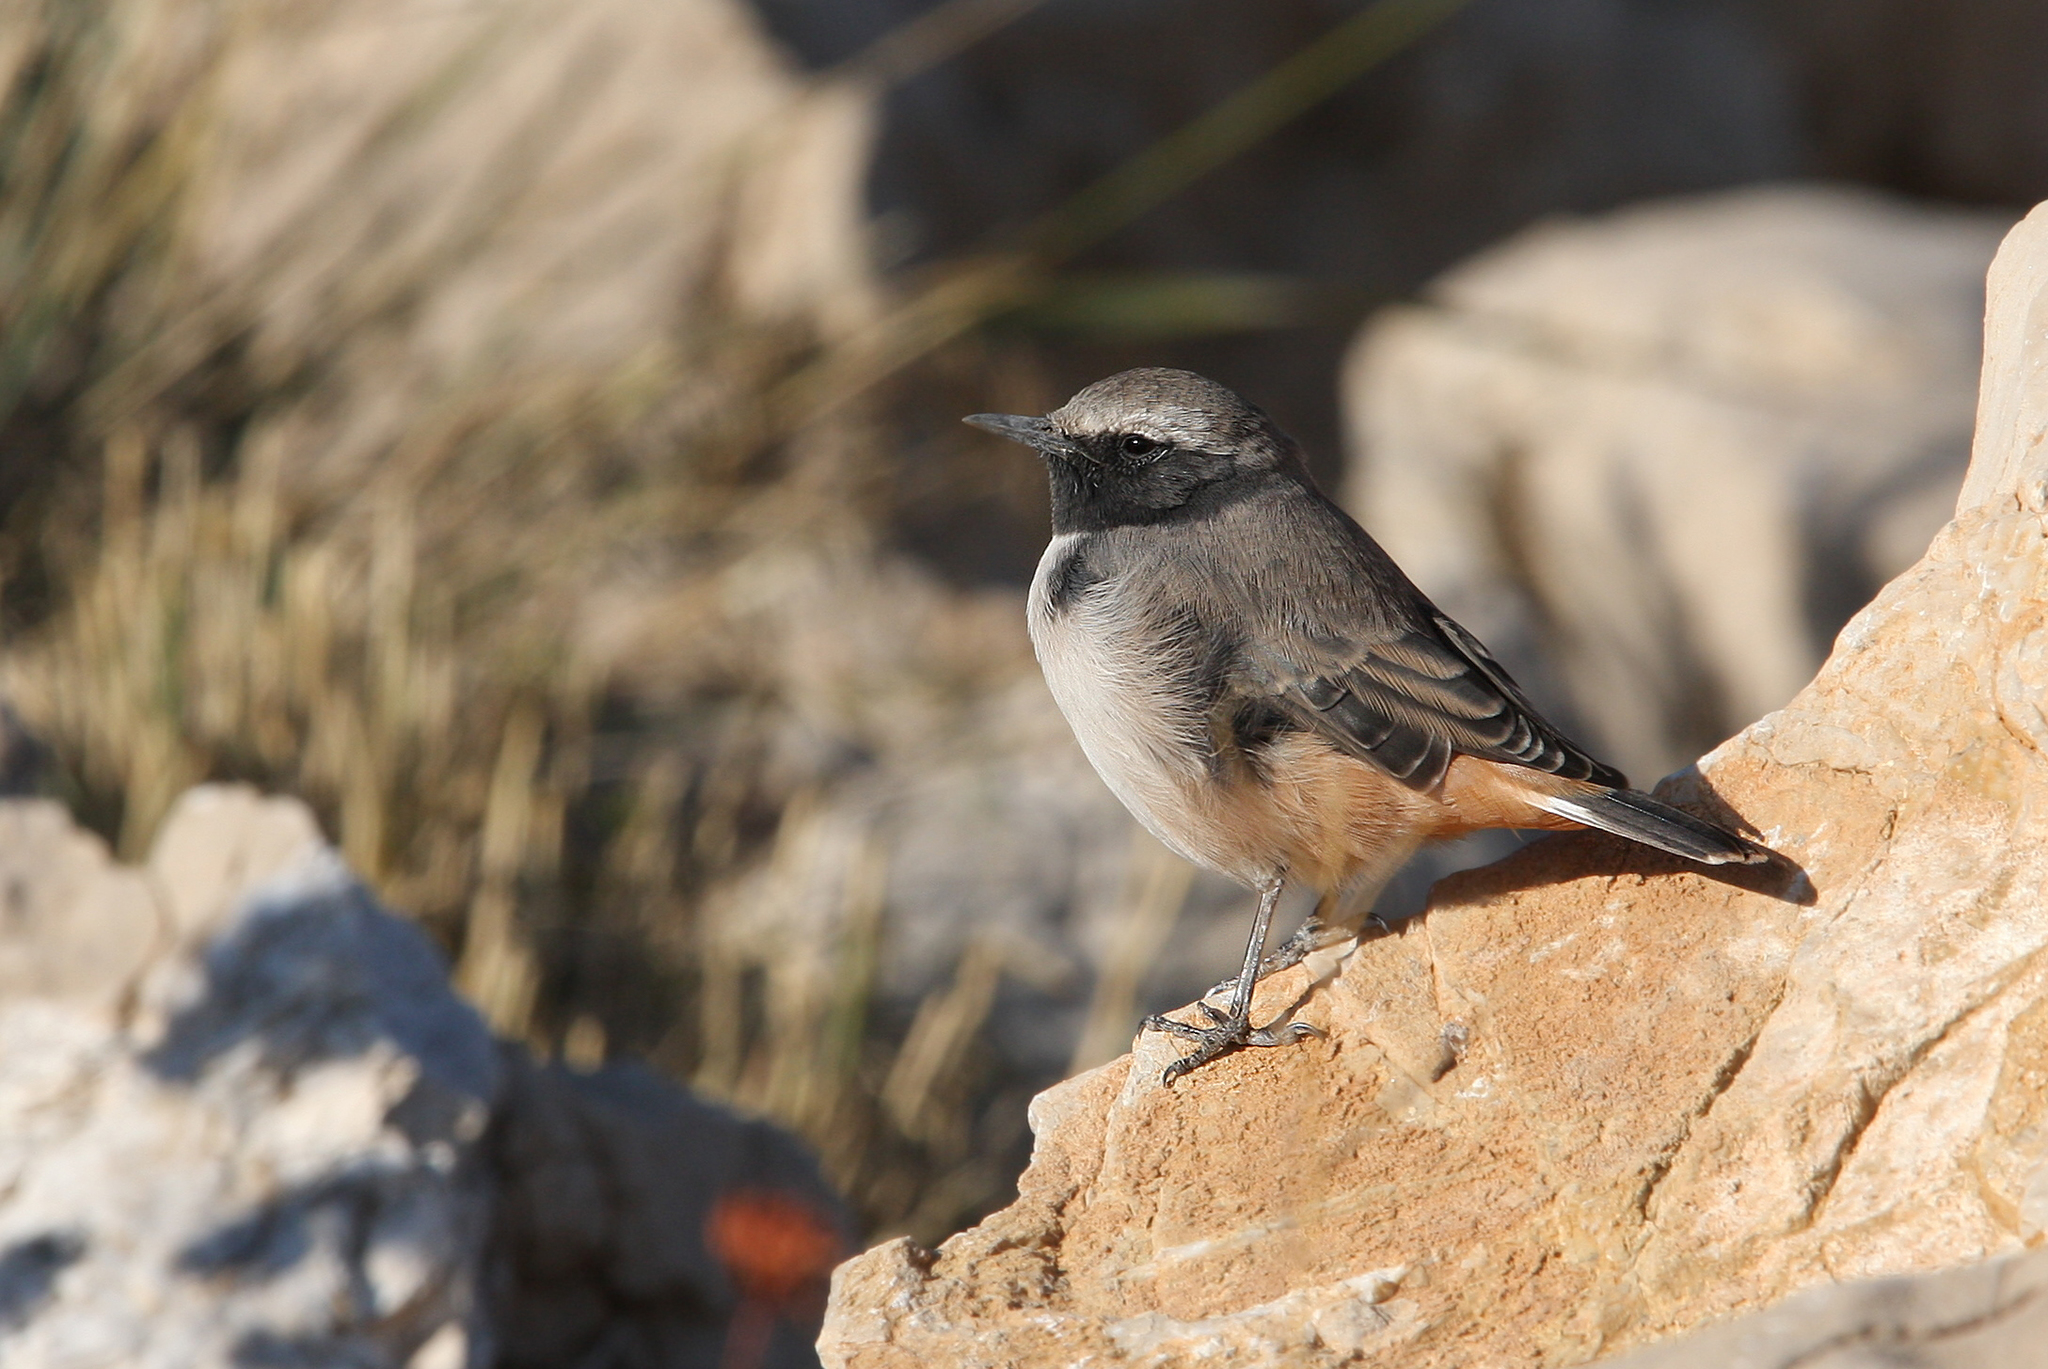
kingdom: Animalia
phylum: Chordata
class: Aves
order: Passeriformes
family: Muscicapidae
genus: Oenanthe
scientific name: Oenanthe xanthoprymna
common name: Kurdish wheatear
